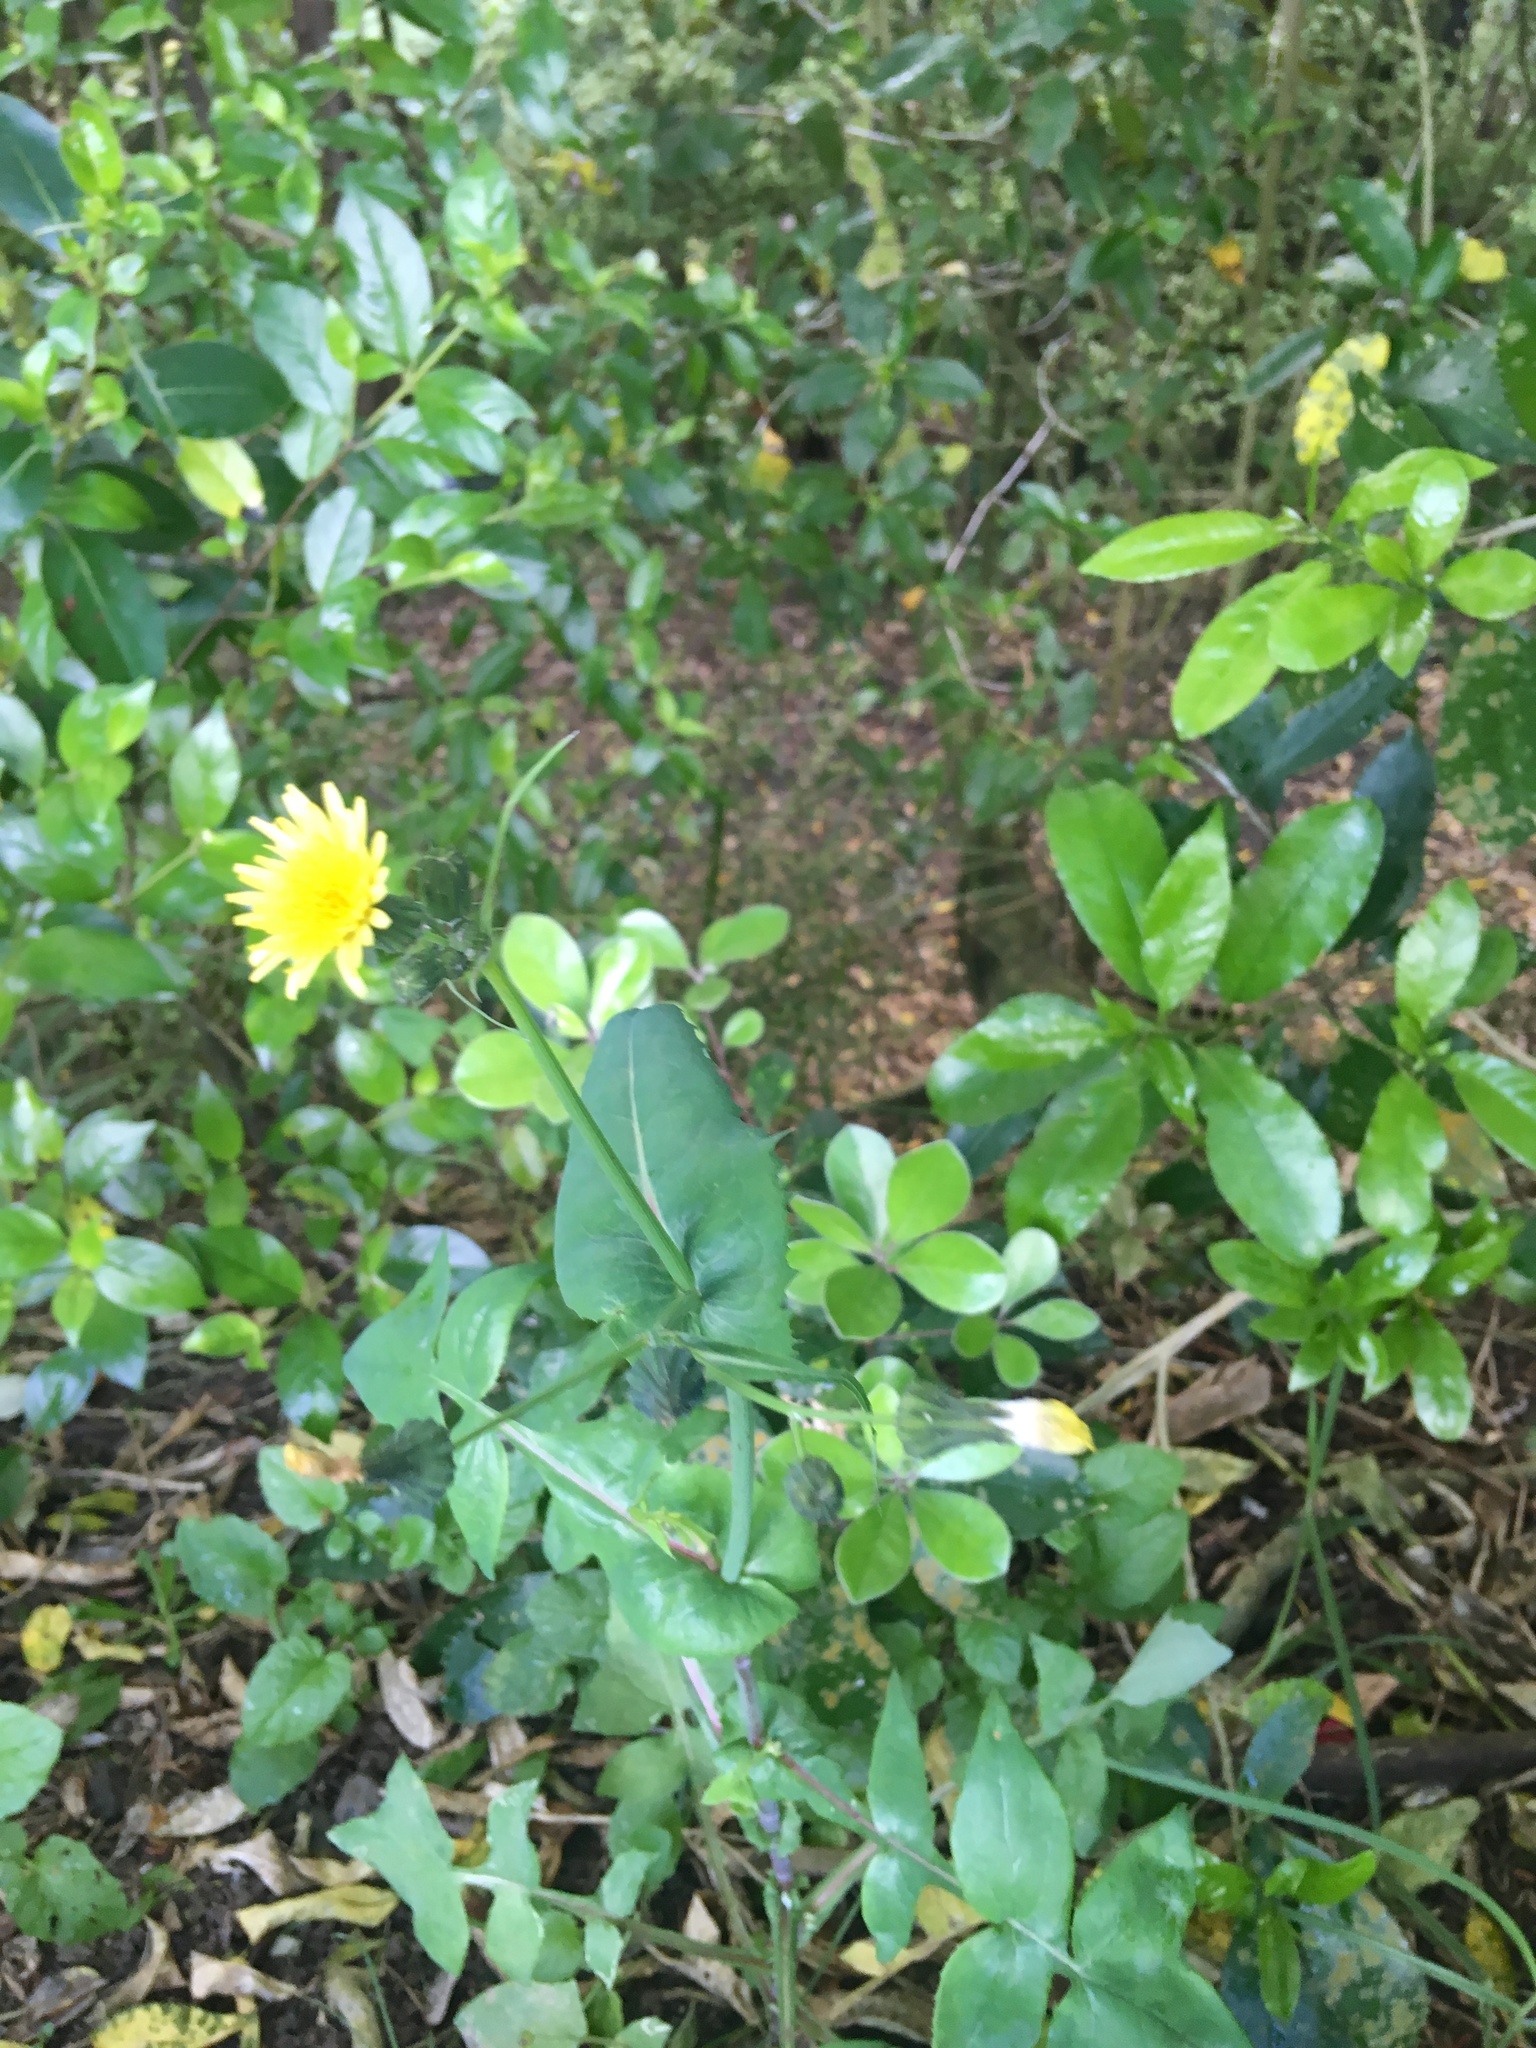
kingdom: Plantae
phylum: Tracheophyta
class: Magnoliopsida
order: Asterales
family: Asteraceae
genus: Sonchus
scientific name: Sonchus oleraceus
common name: Common sowthistle
